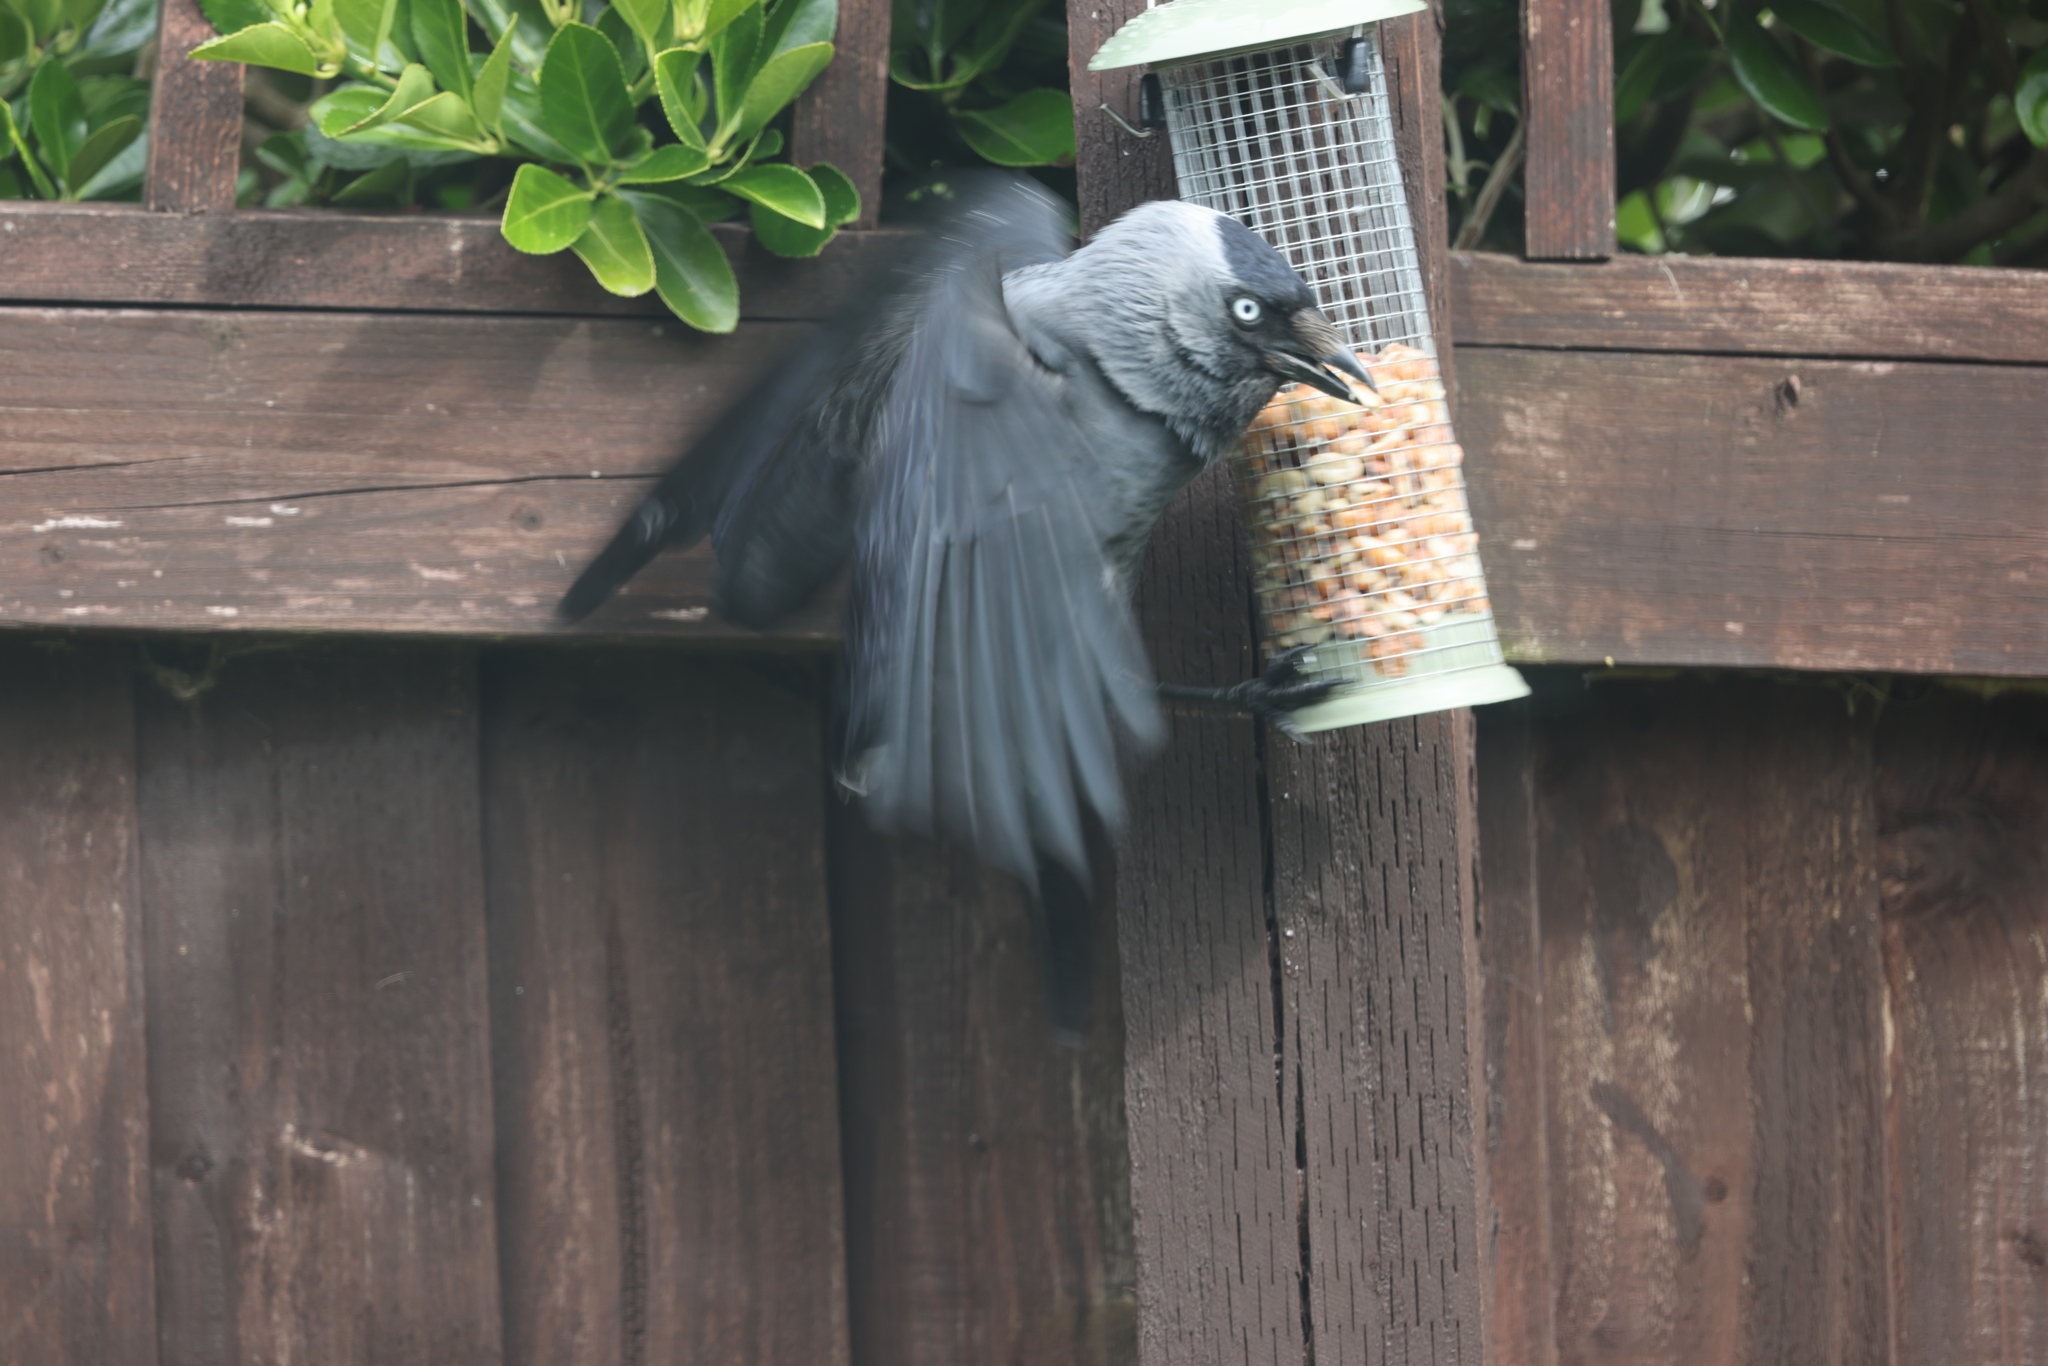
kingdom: Animalia
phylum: Chordata
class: Aves
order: Passeriformes
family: Corvidae
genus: Coloeus
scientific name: Coloeus monedula
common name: Western jackdaw
